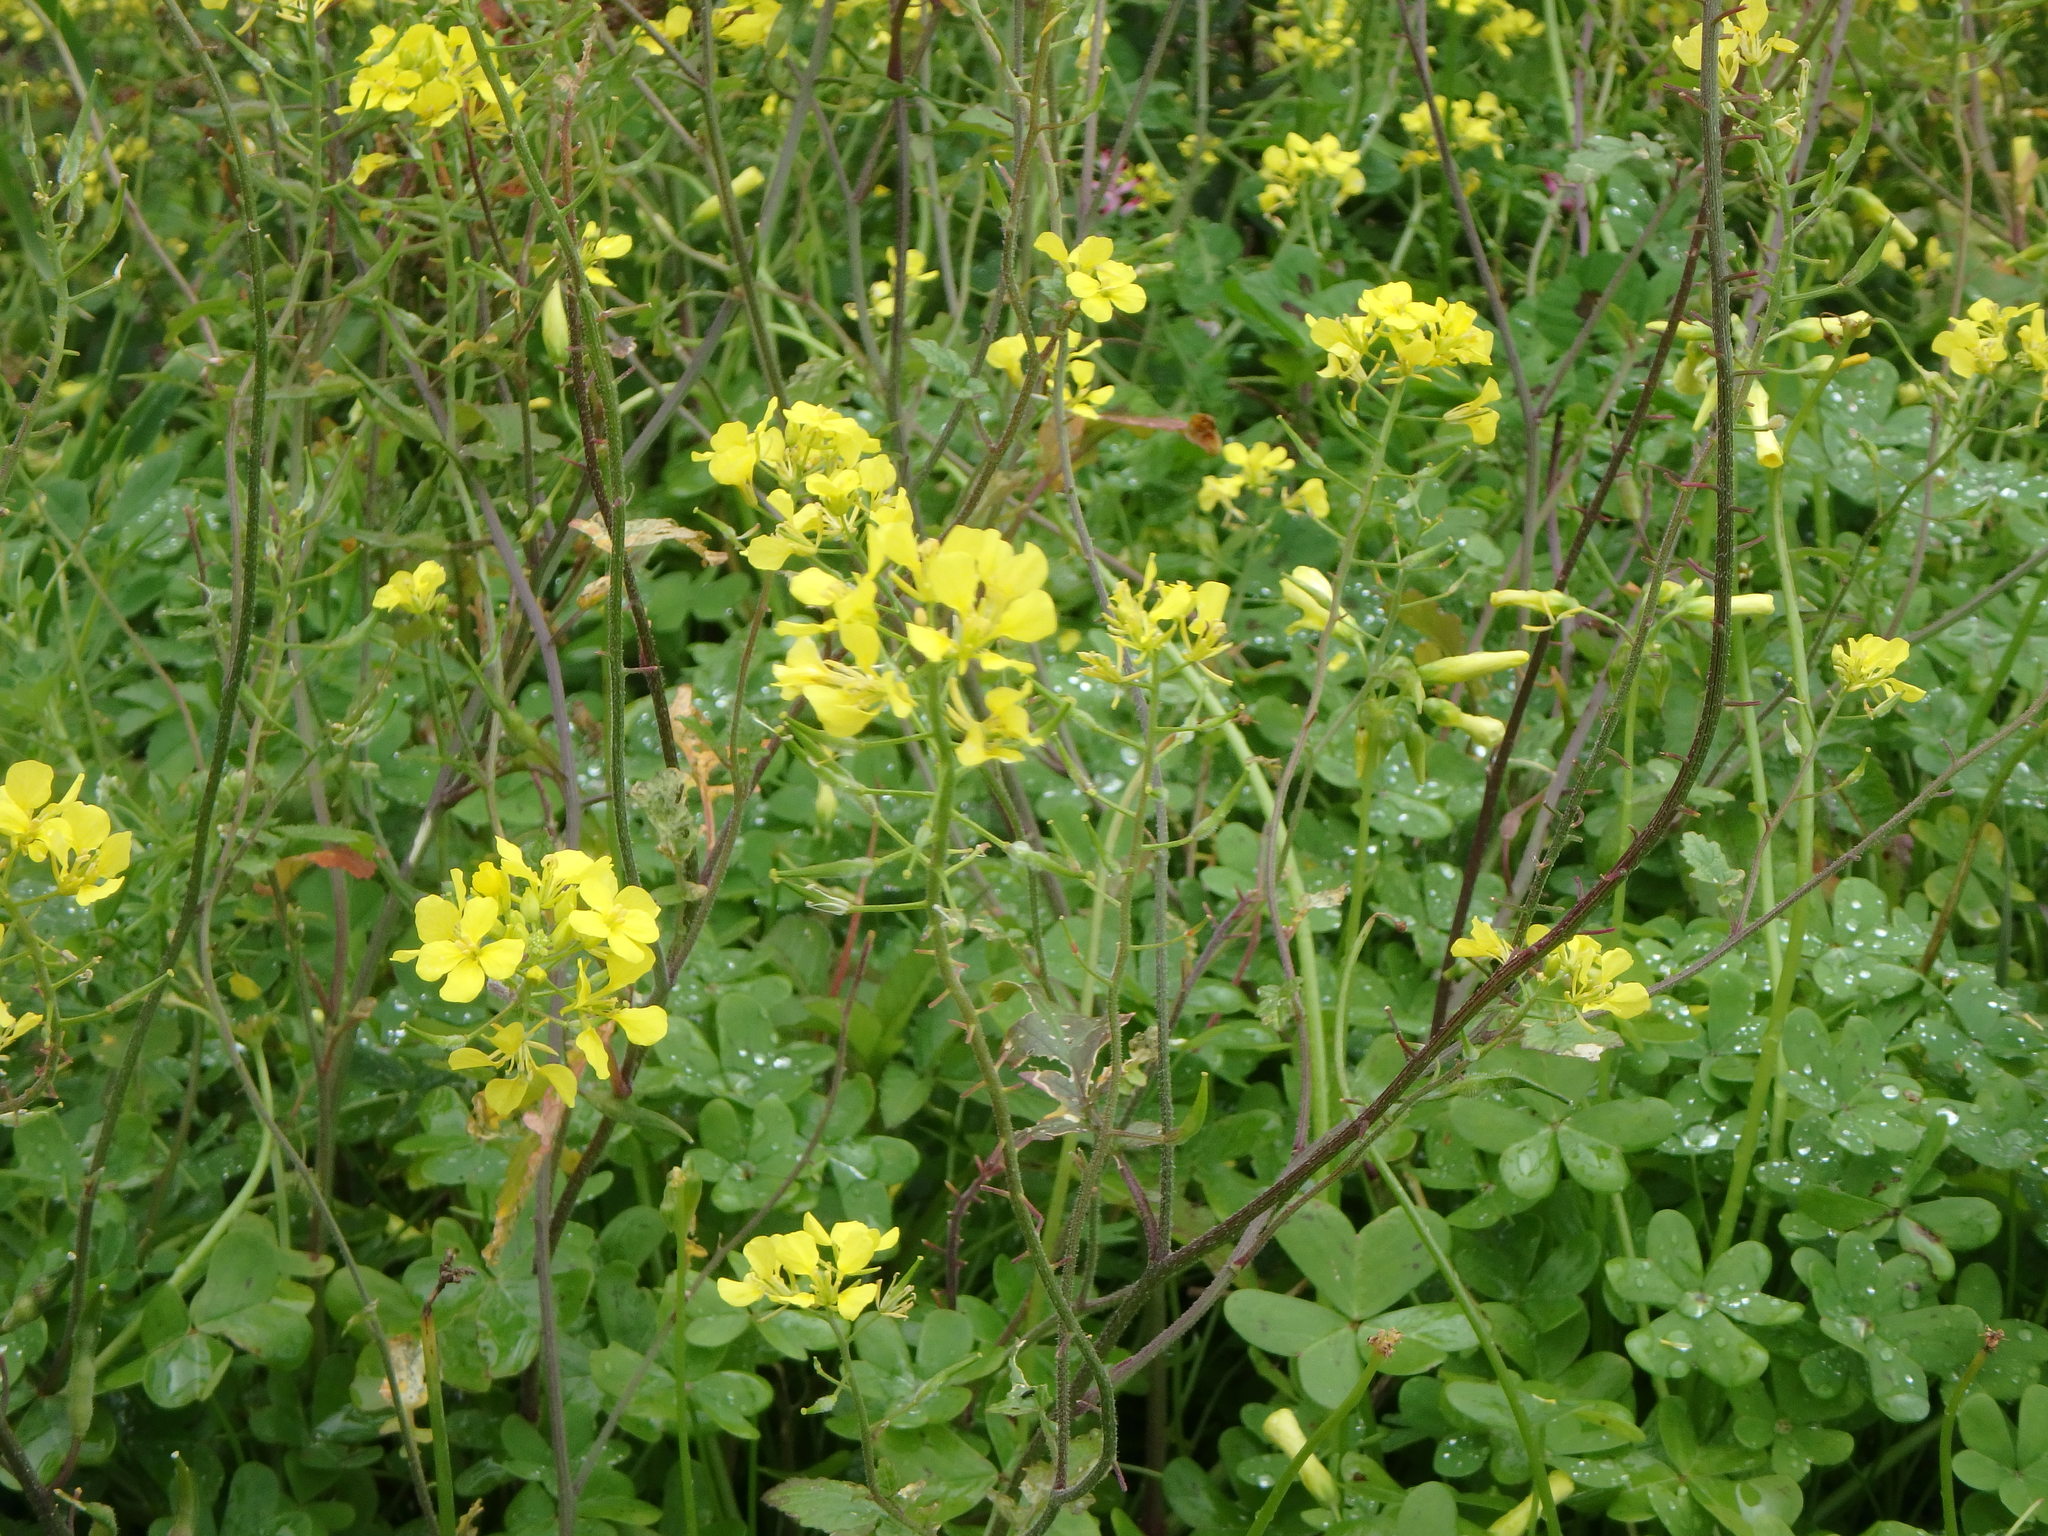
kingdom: Plantae
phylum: Tracheophyta
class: Magnoliopsida
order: Brassicales
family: Brassicaceae
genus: Sinapis
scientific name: Sinapis alba
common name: White mustard
